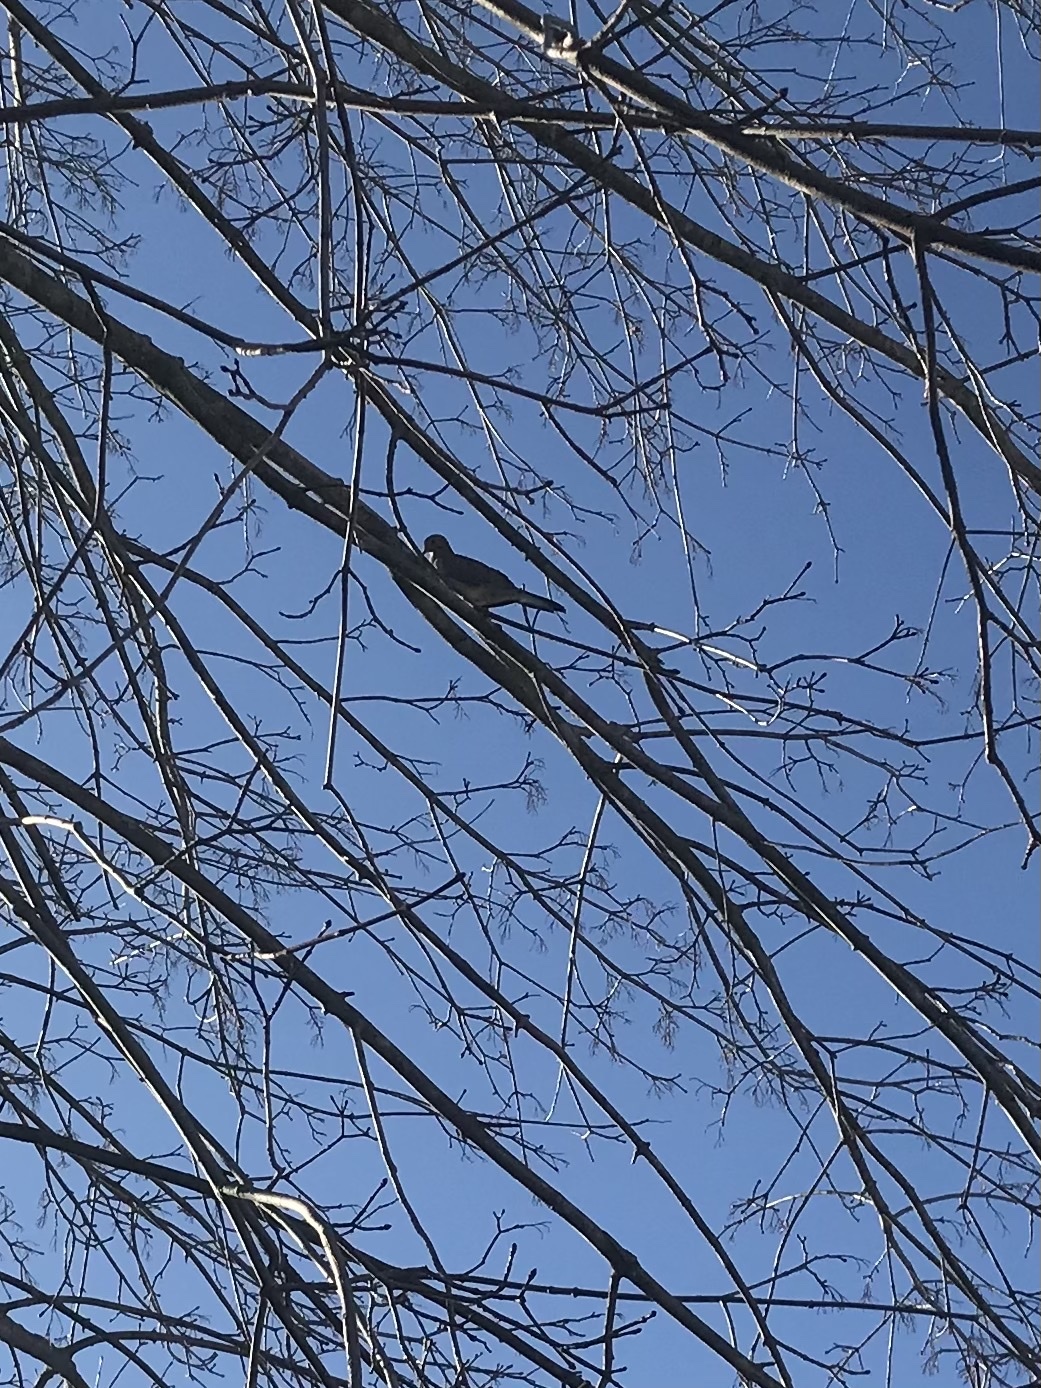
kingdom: Animalia
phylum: Chordata
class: Aves
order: Columbiformes
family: Columbidae
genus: Zenaida
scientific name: Zenaida macroura
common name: Mourning dove
